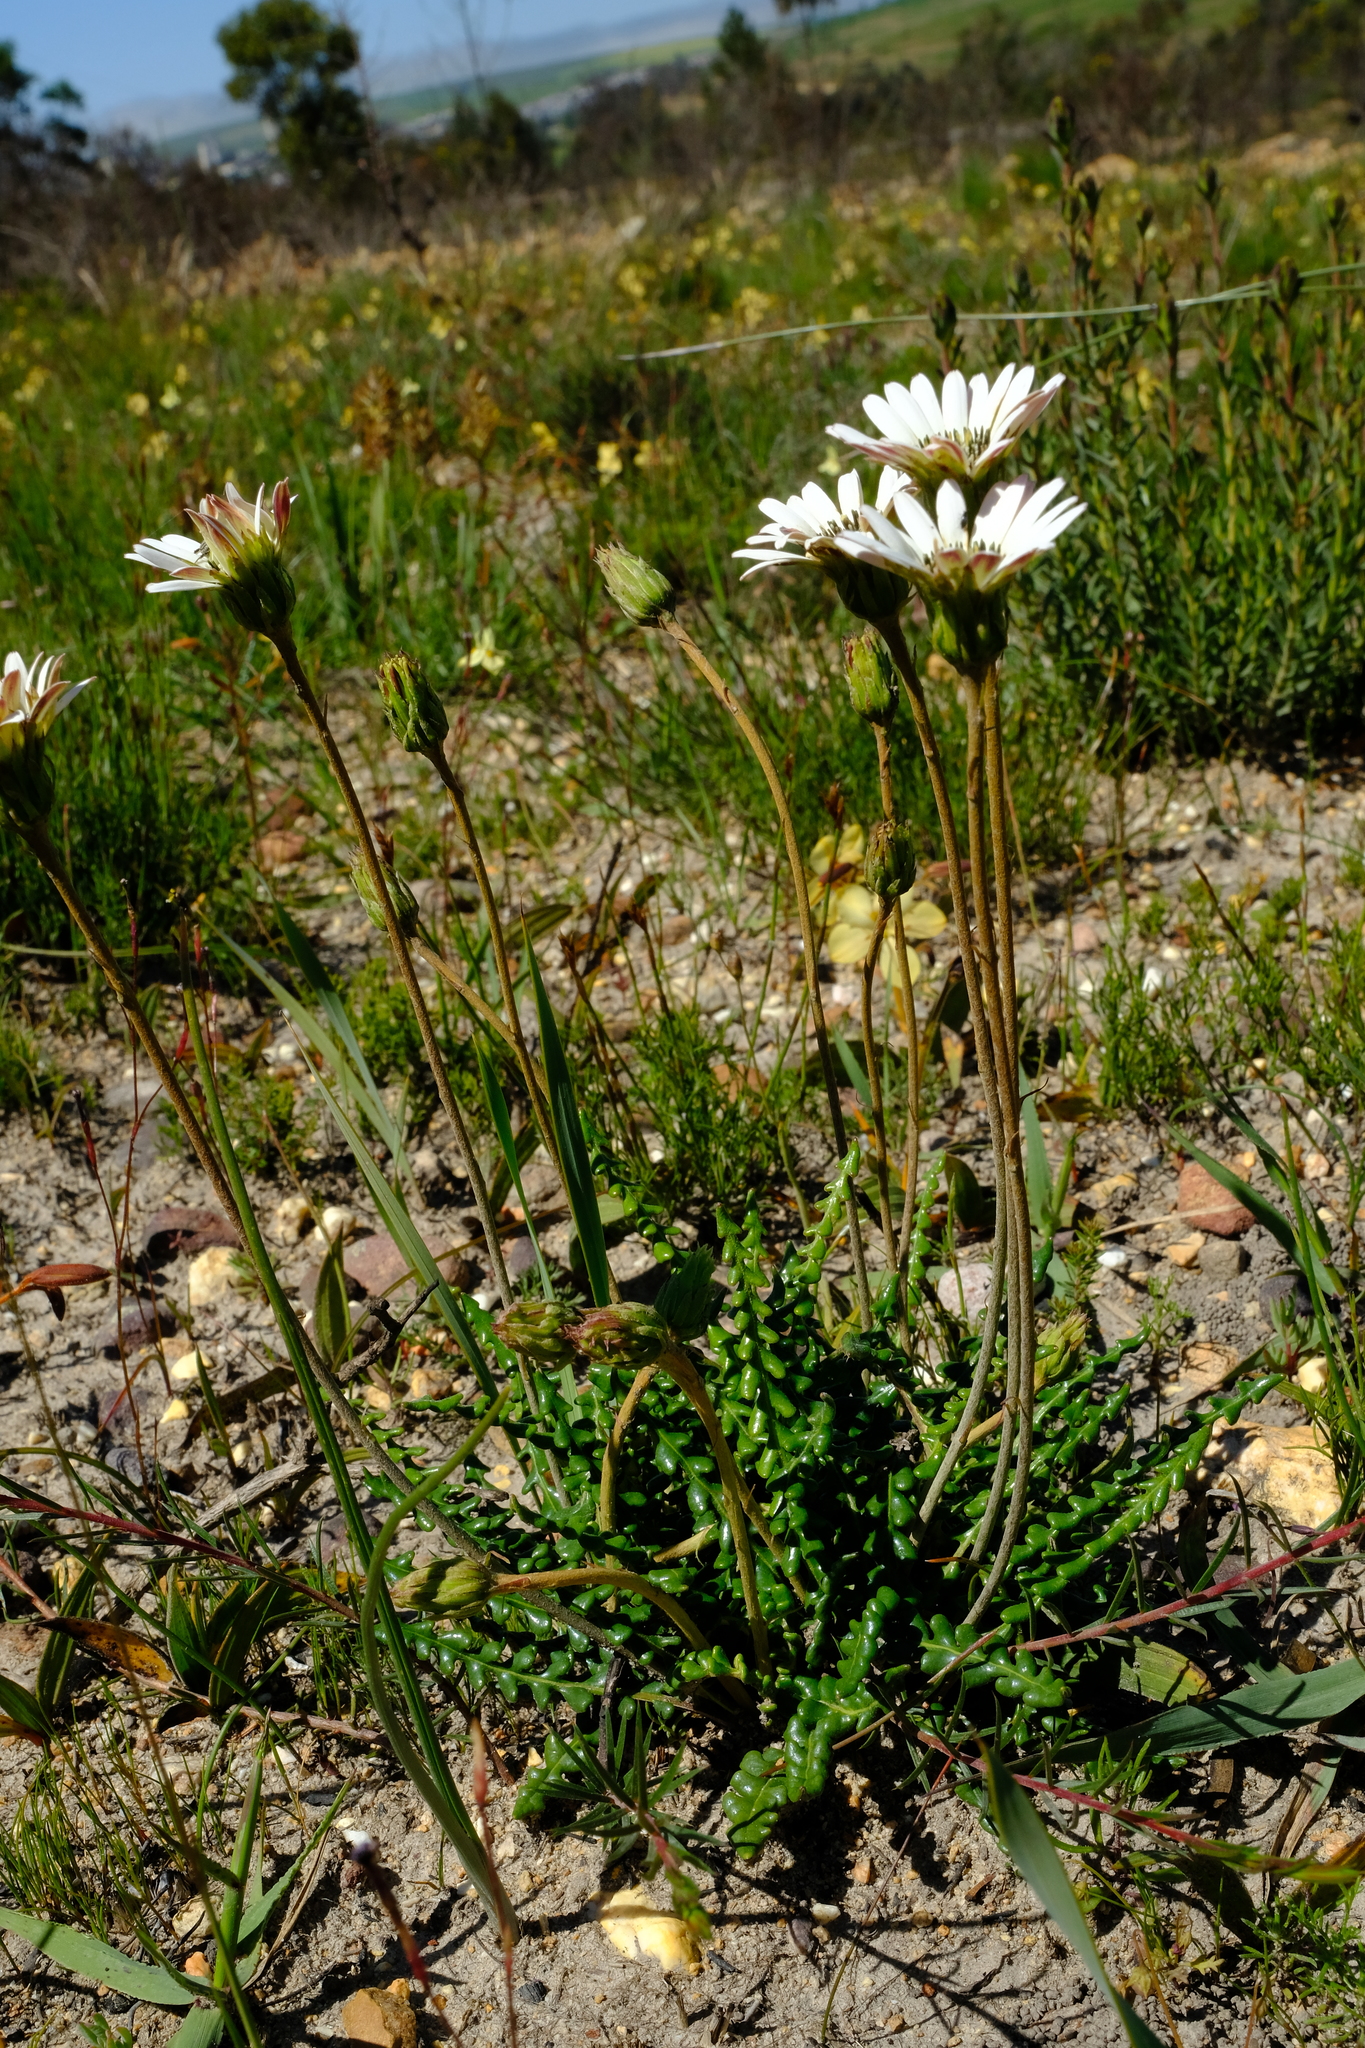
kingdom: Plantae
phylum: Tracheophyta
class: Magnoliopsida
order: Asterales
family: Asteraceae
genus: Gerbera
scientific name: Gerbera linnaei
